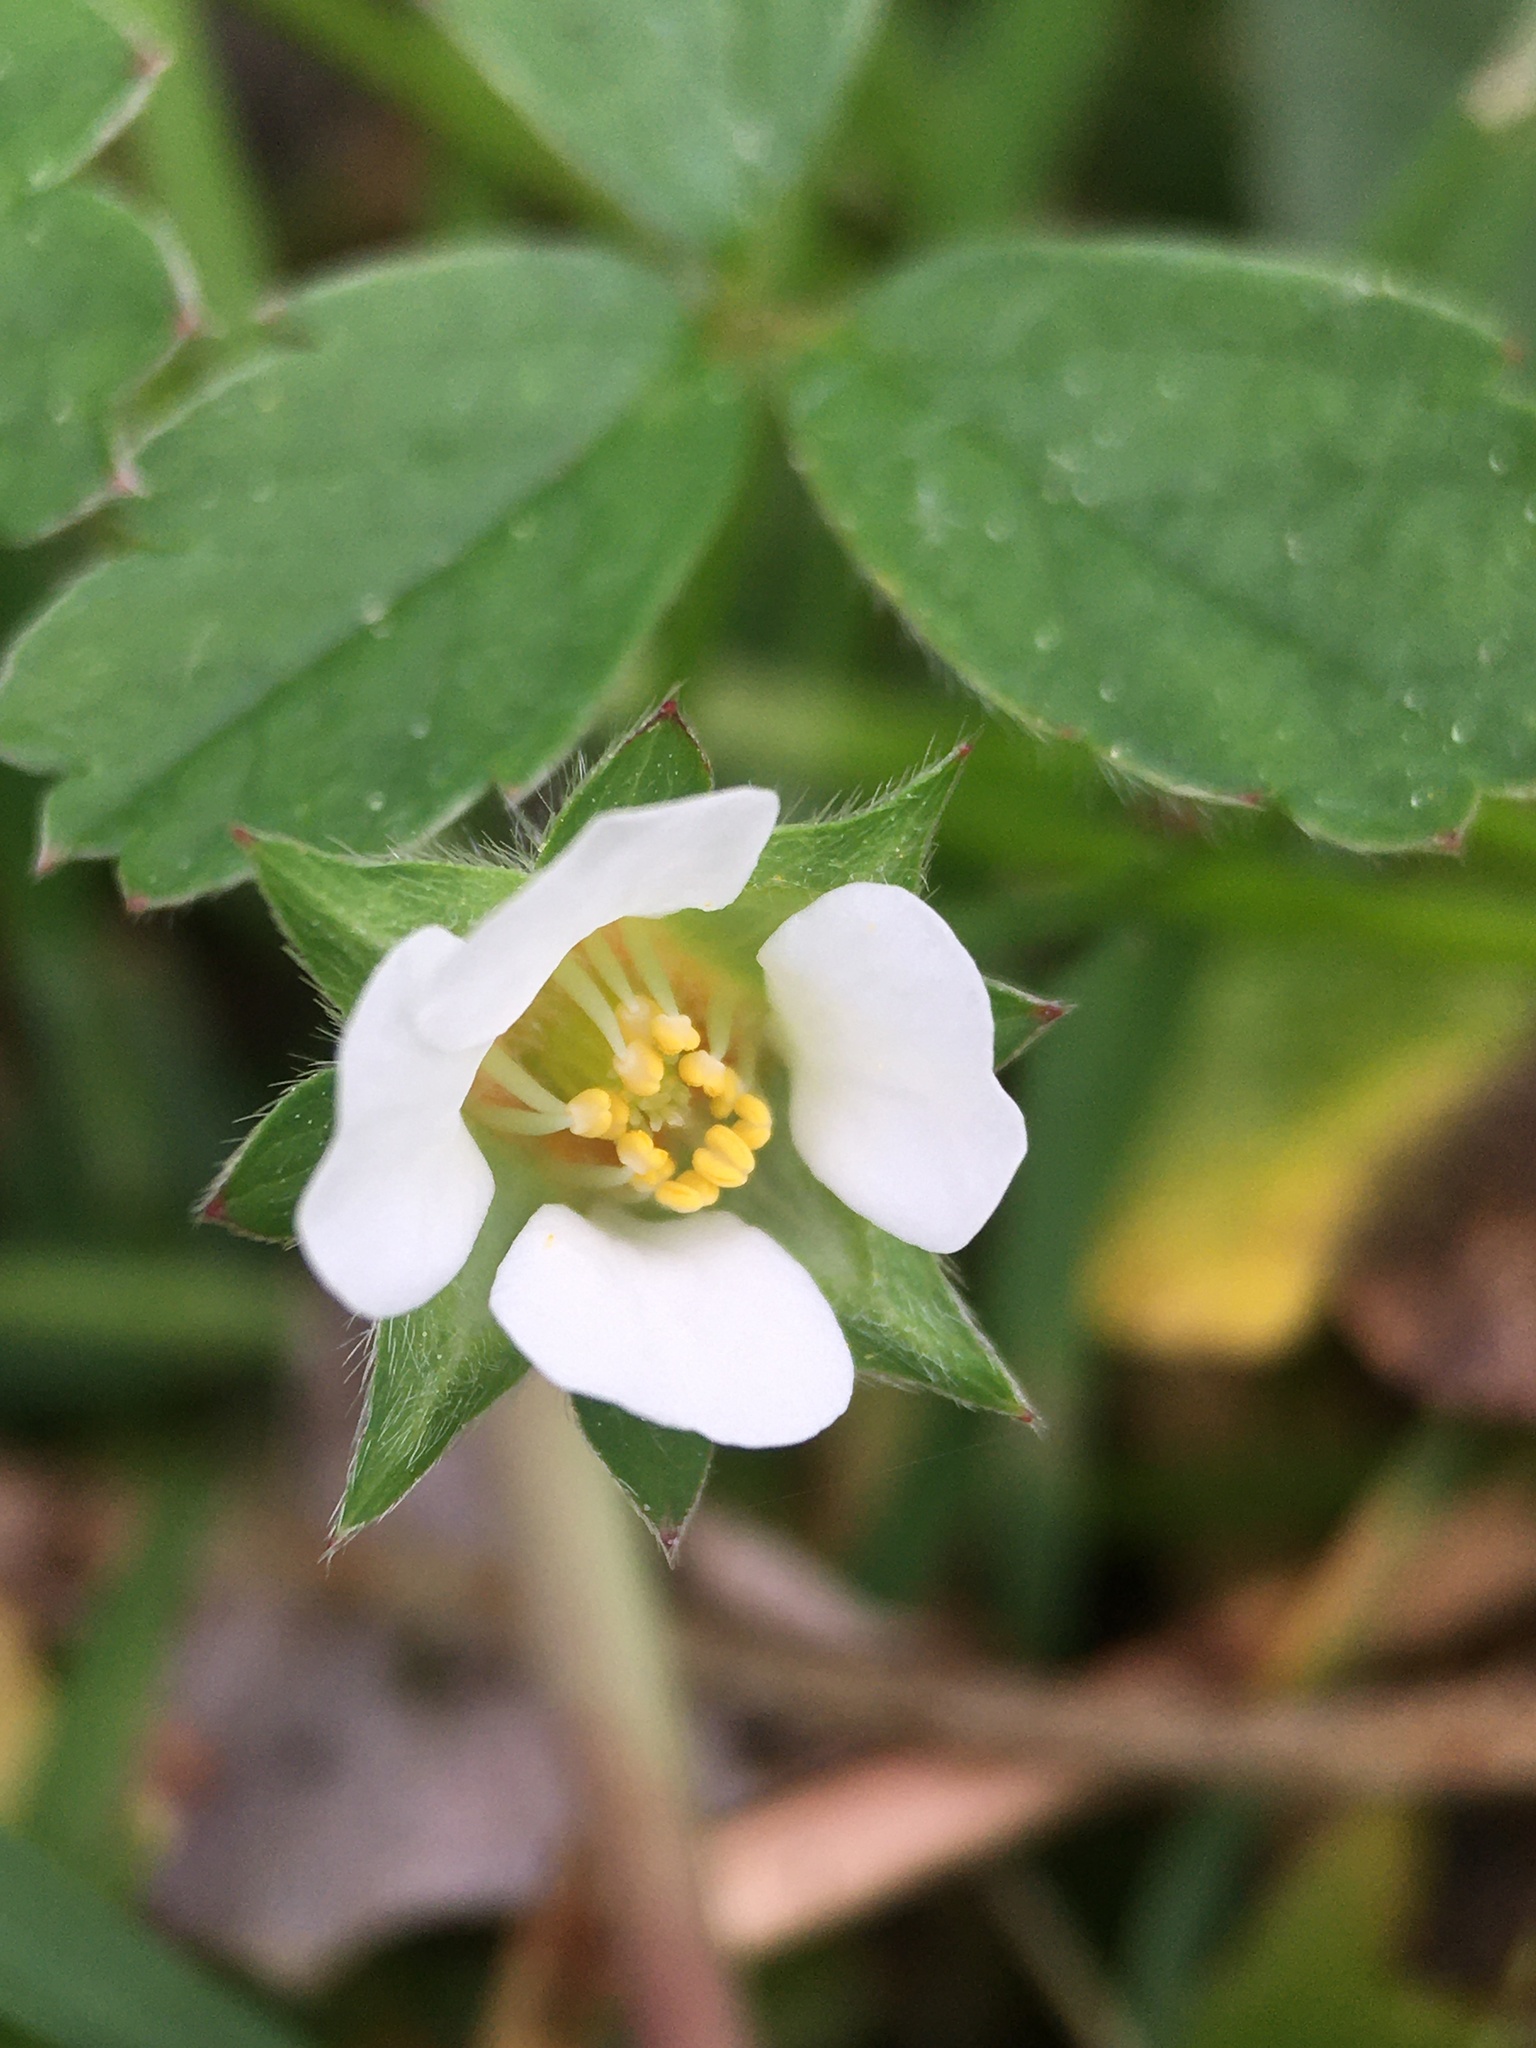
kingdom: Plantae
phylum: Tracheophyta
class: Magnoliopsida
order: Rosales
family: Rosaceae
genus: Potentilla
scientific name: Potentilla sterilis
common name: Barren strawberry
